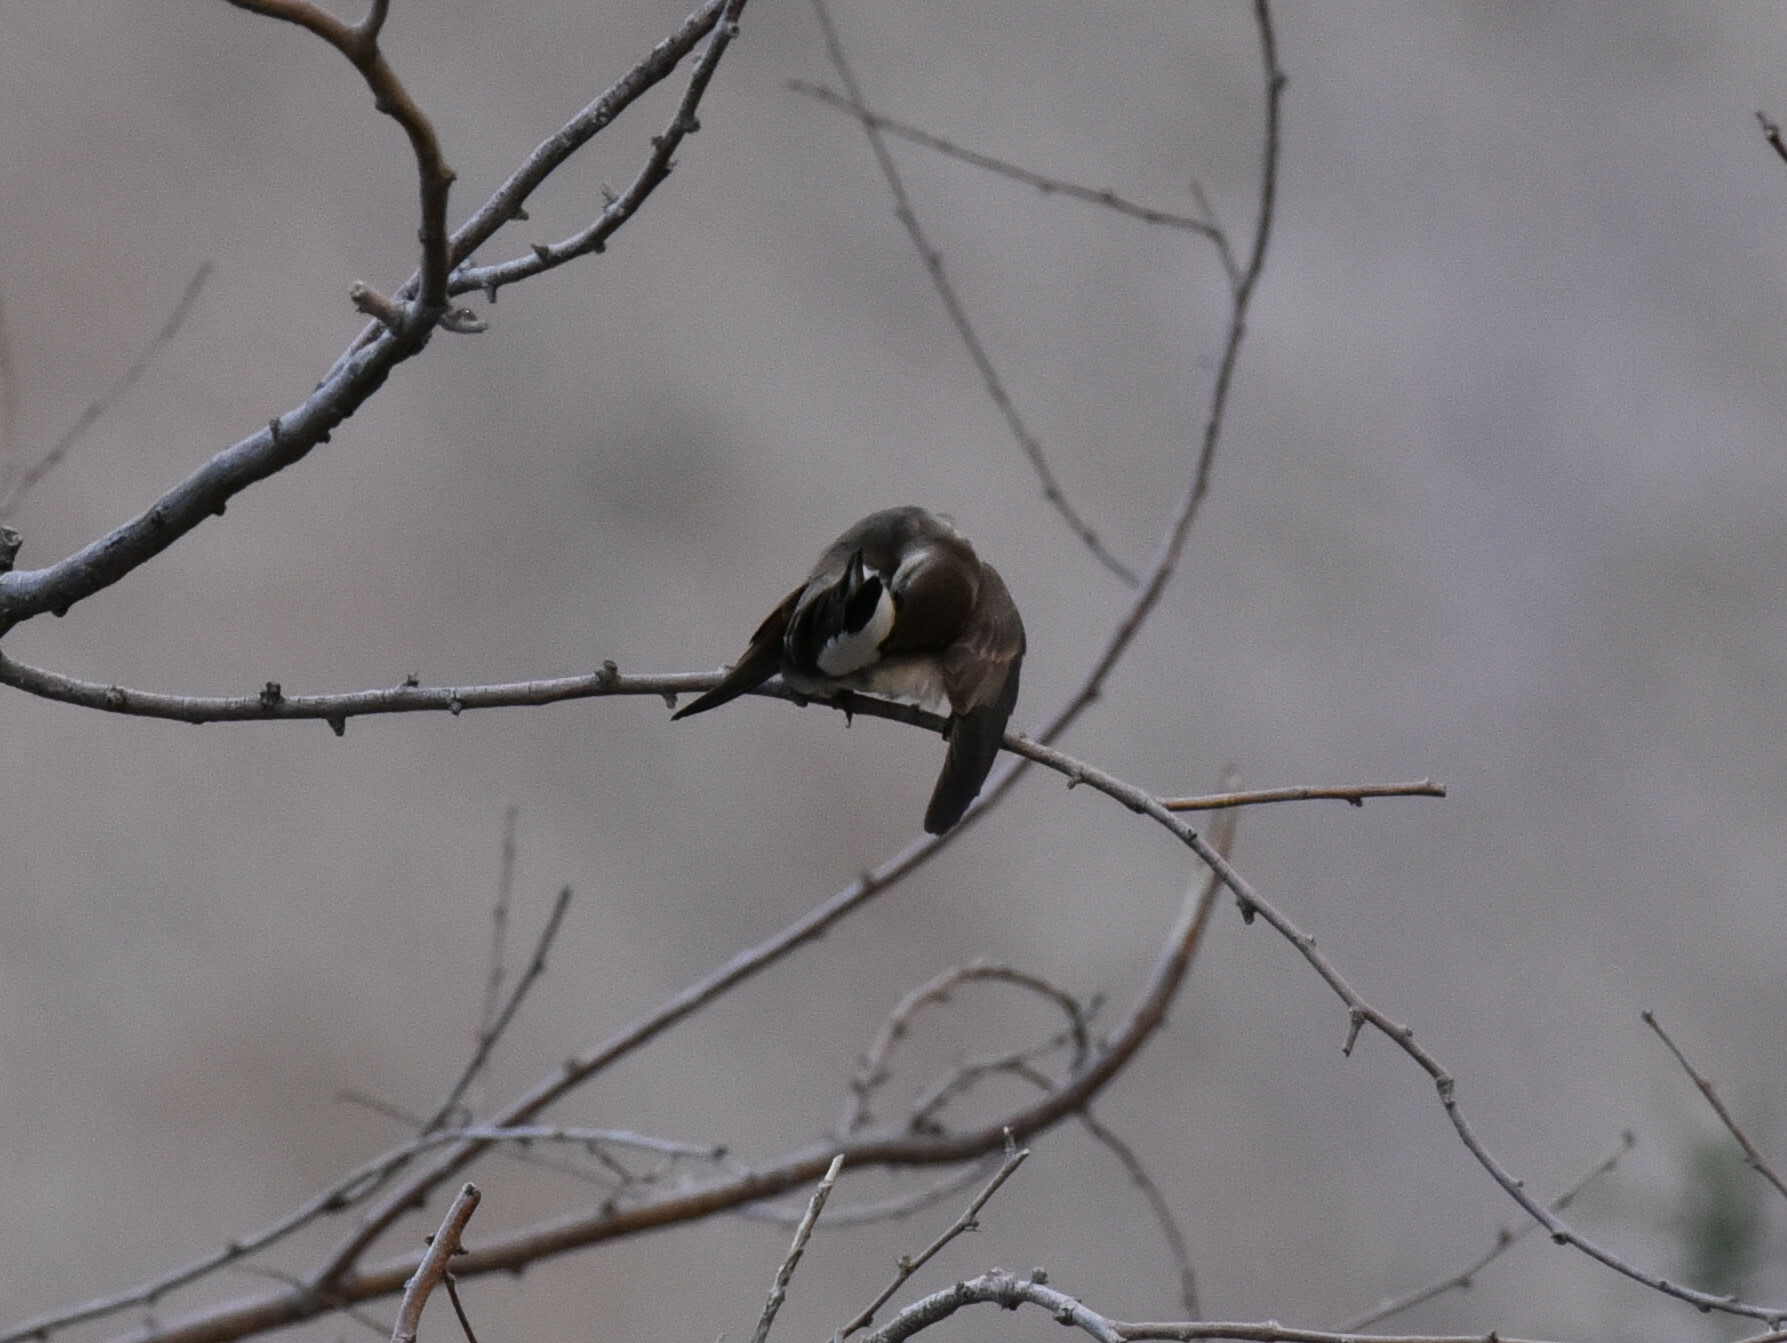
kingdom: Animalia
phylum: Chordata
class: Aves
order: Passeriformes
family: Hirundinidae
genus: Stelgidopteryx
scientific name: Stelgidopteryx serripennis
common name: Northern rough-winged swallow
